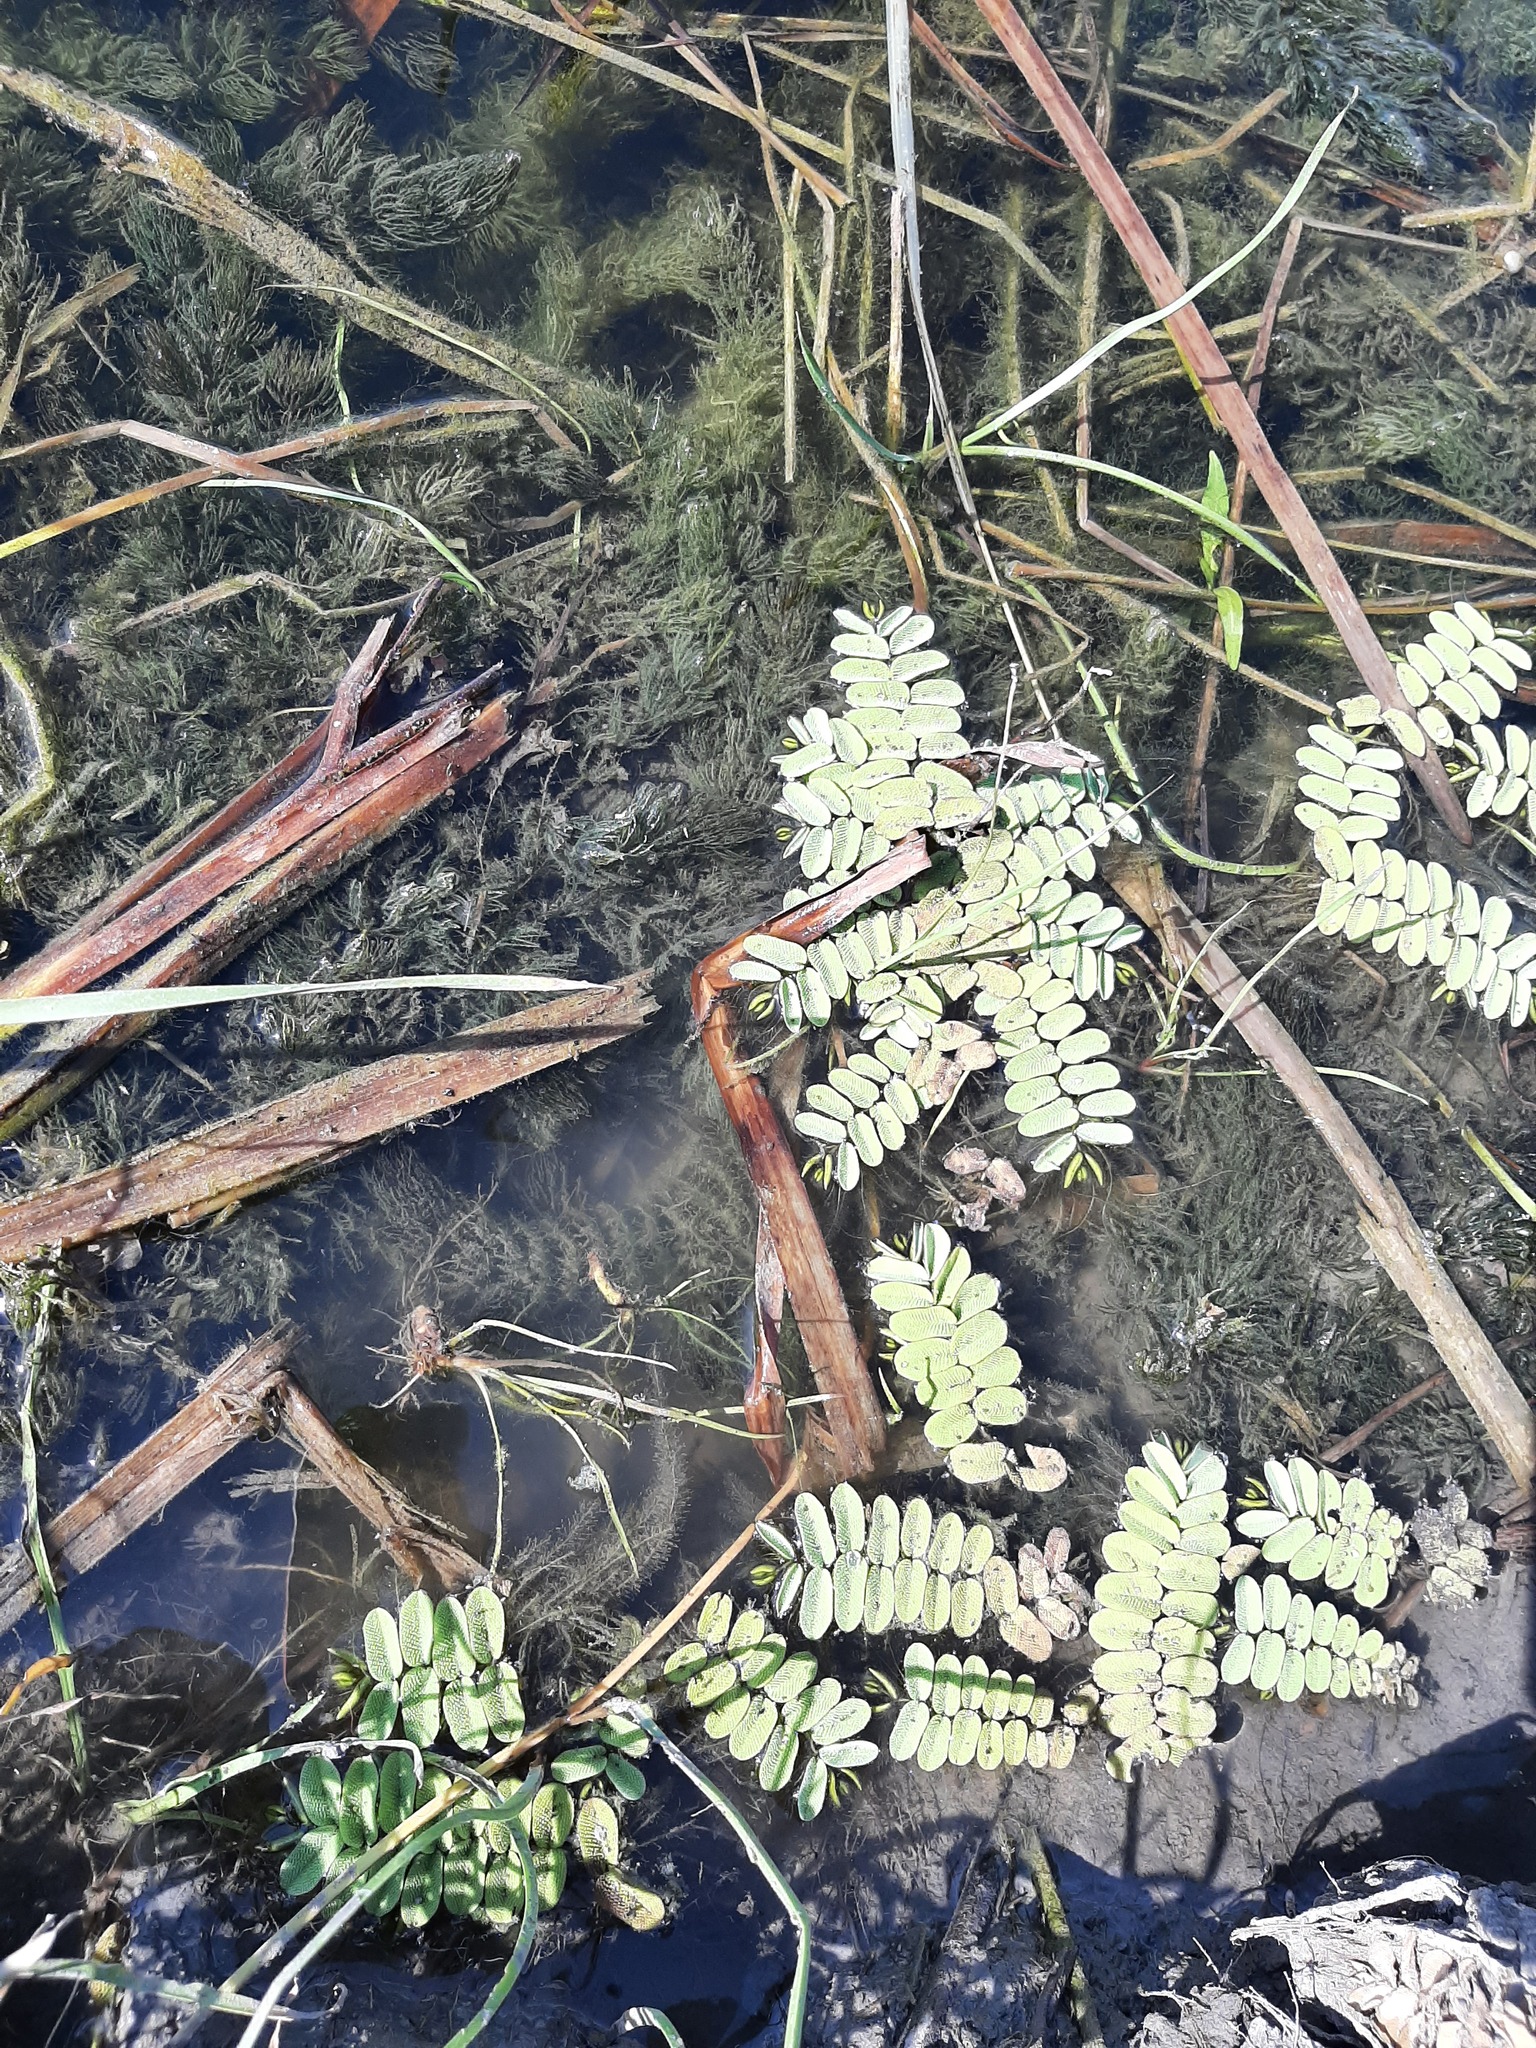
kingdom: Plantae
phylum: Tracheophyta
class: Polypodiopsida
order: Salviniales
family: Salviniaceae
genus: Salvinia
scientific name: Salvinia natans
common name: Floating fern
